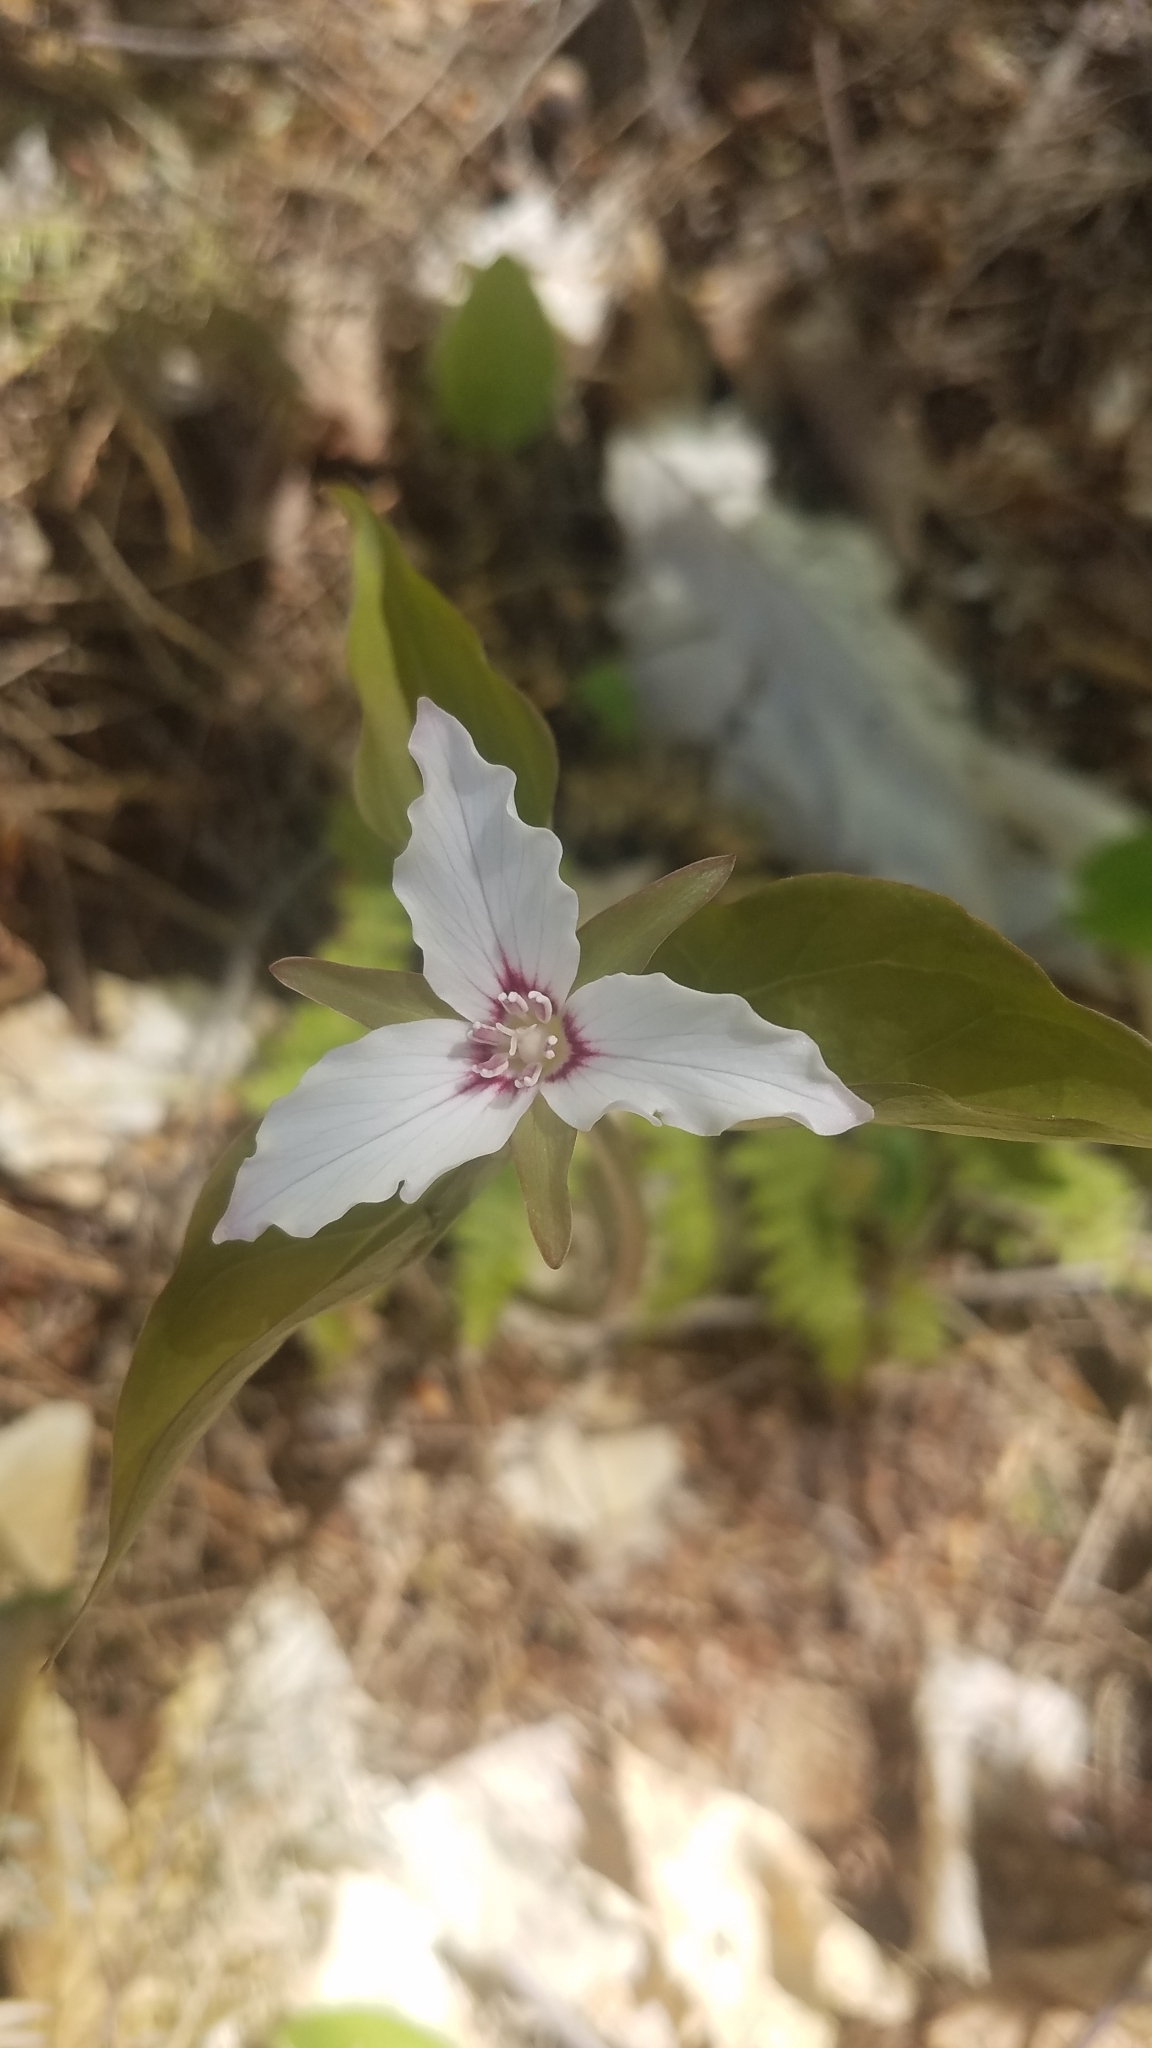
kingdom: Plantae
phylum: Tracheophyta
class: Liliopsida
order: Liliales
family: Melanthiaceae
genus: Trillium
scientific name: Trillium undulatum
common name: Paint trillium
